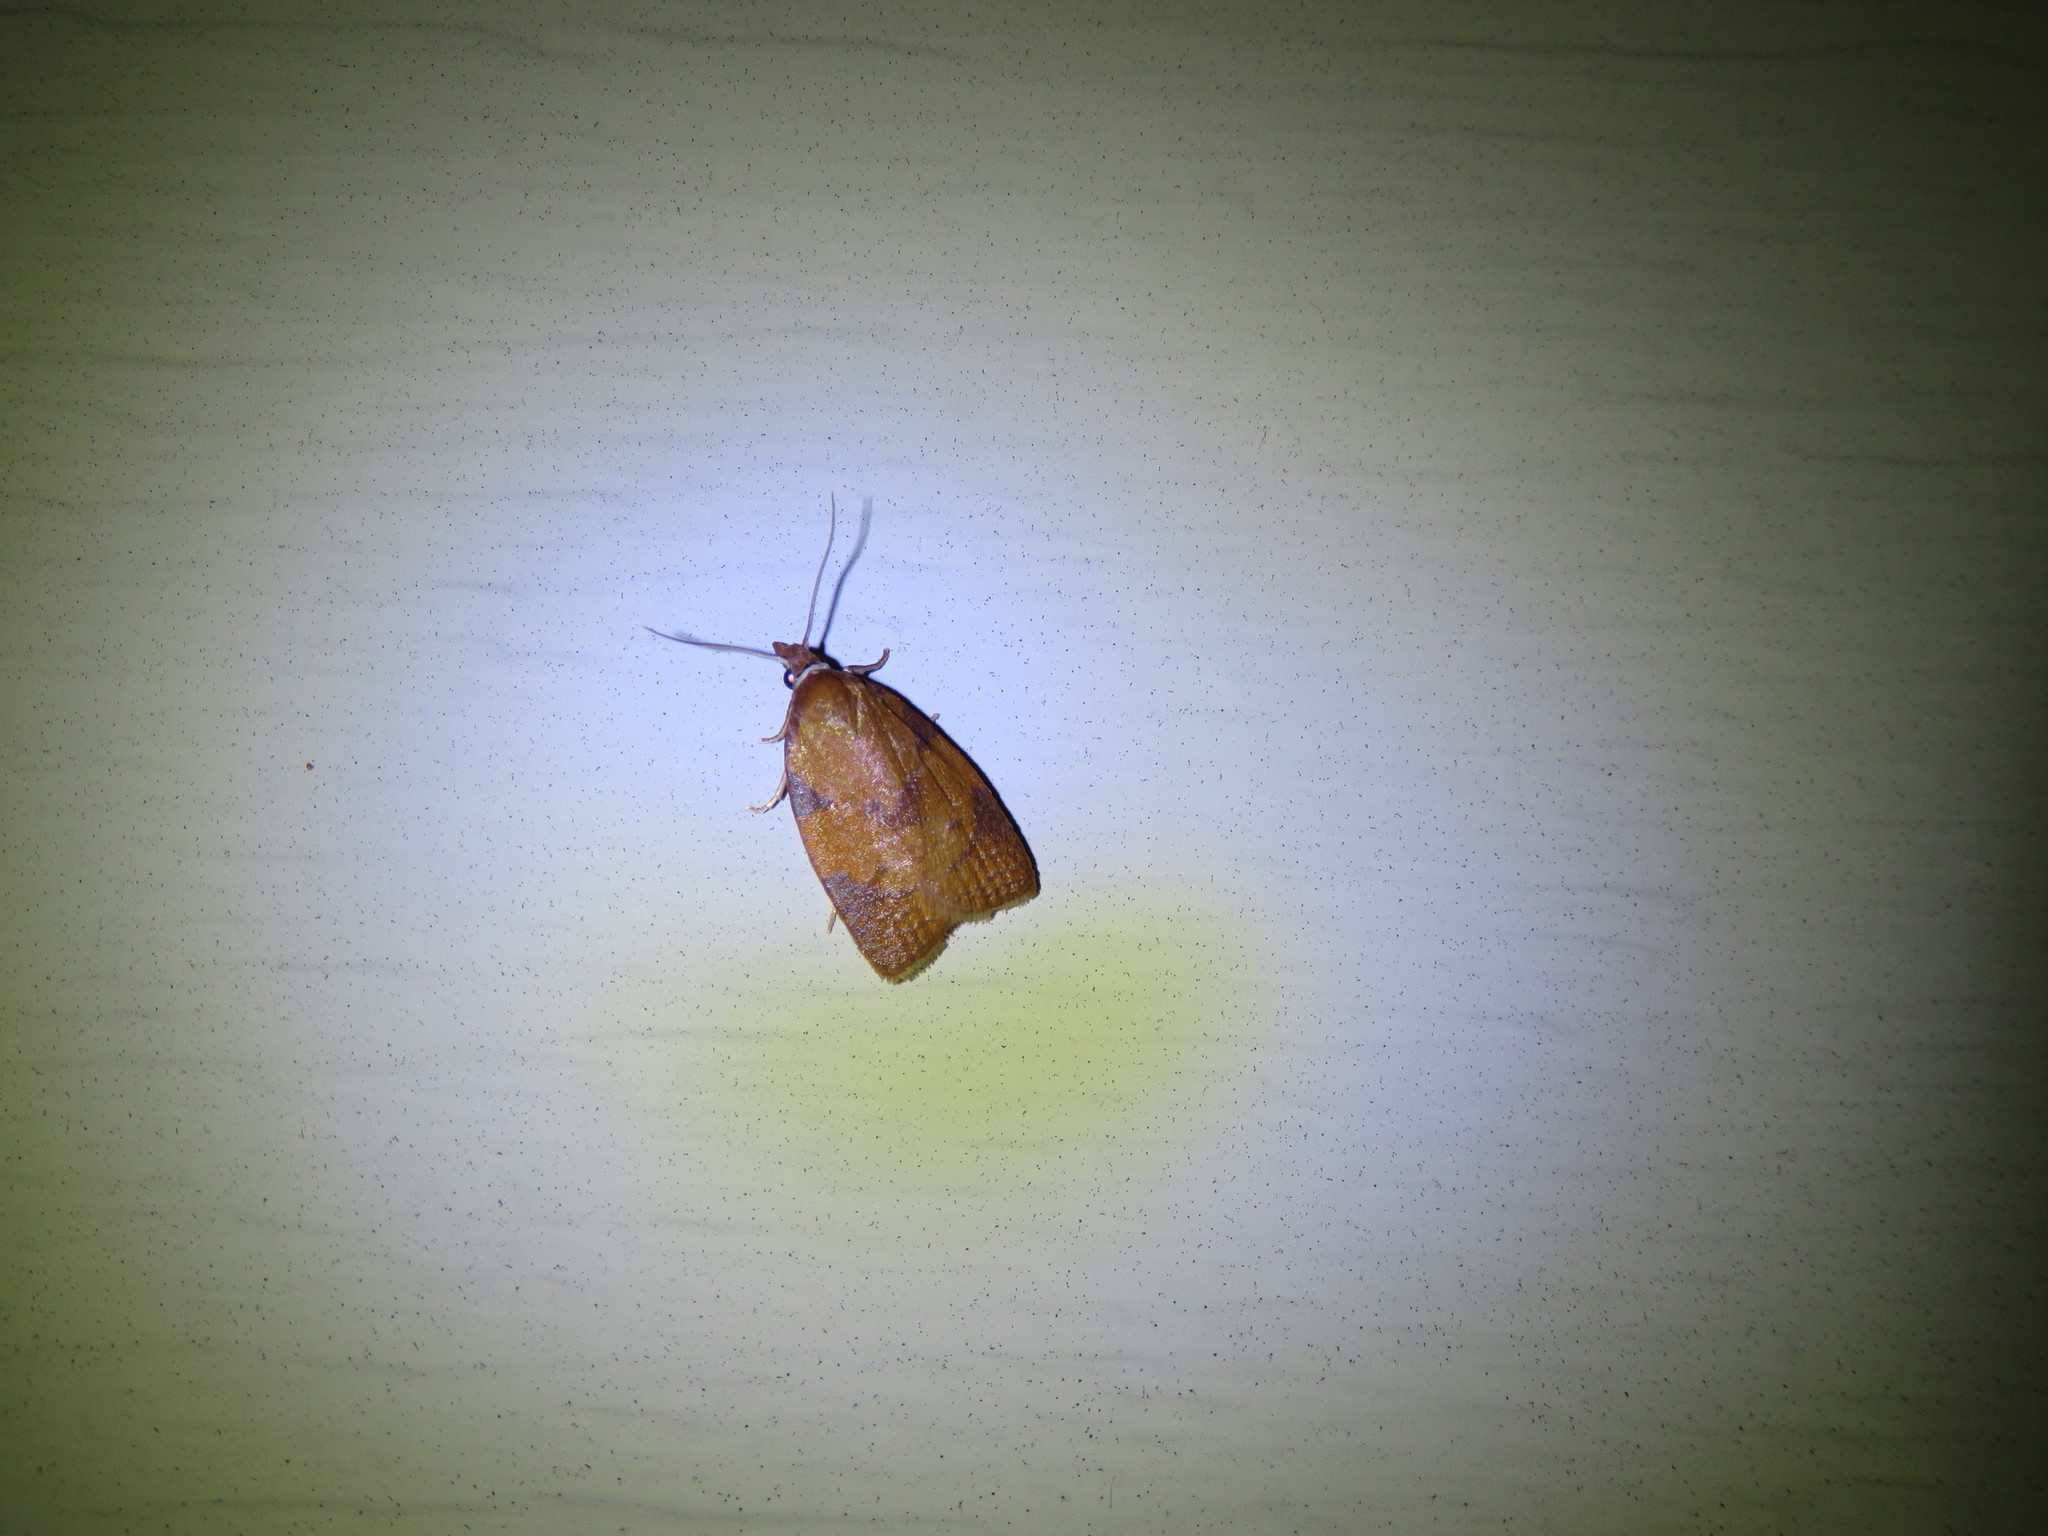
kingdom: Animalia
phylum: Arthropoda
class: Insecta
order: Lepidoptera
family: Tortricidae
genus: Cenopis
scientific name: Cenopis directana
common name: Chokecherry leafroller moth
